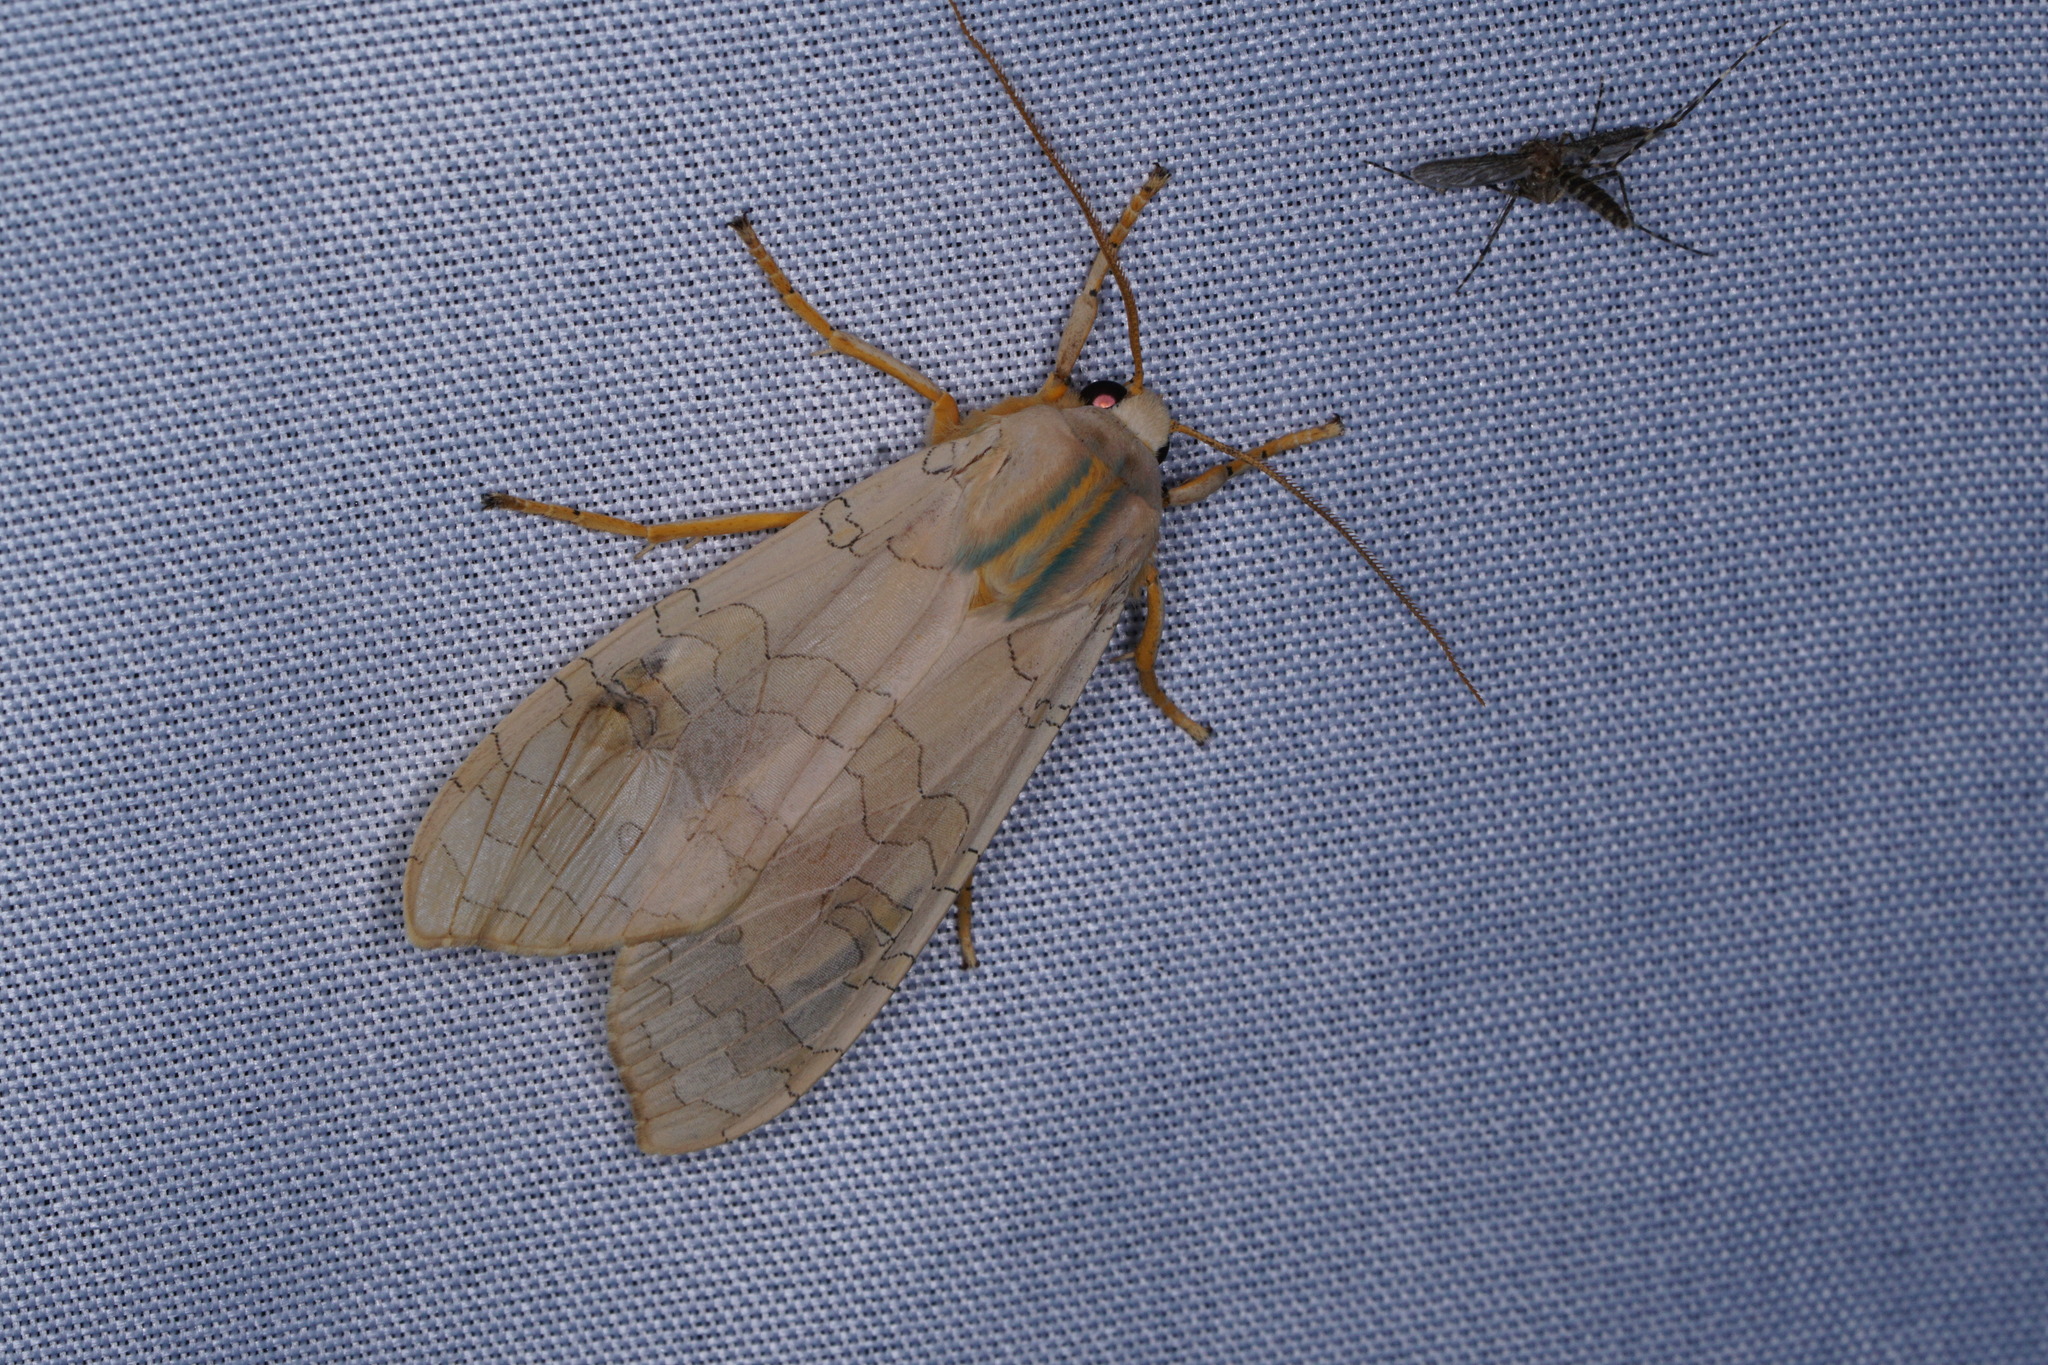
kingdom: Animalia
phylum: Arthropoda
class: Insecta
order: Lepidoptera
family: Erebidae
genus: Halysidota
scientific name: Halysidota
